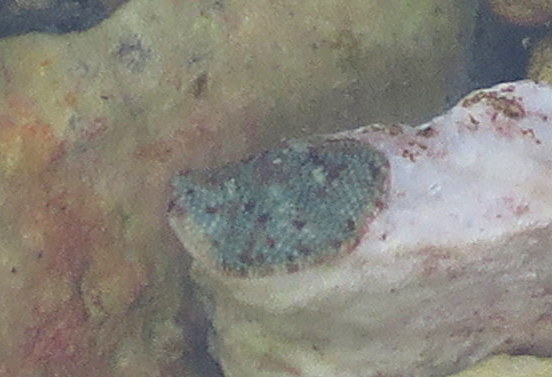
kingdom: Animalia
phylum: Echinodermata
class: Asteroidea
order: Valvatida
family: Asterinidae
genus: Parvulastra
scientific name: Parvulastra exigua
